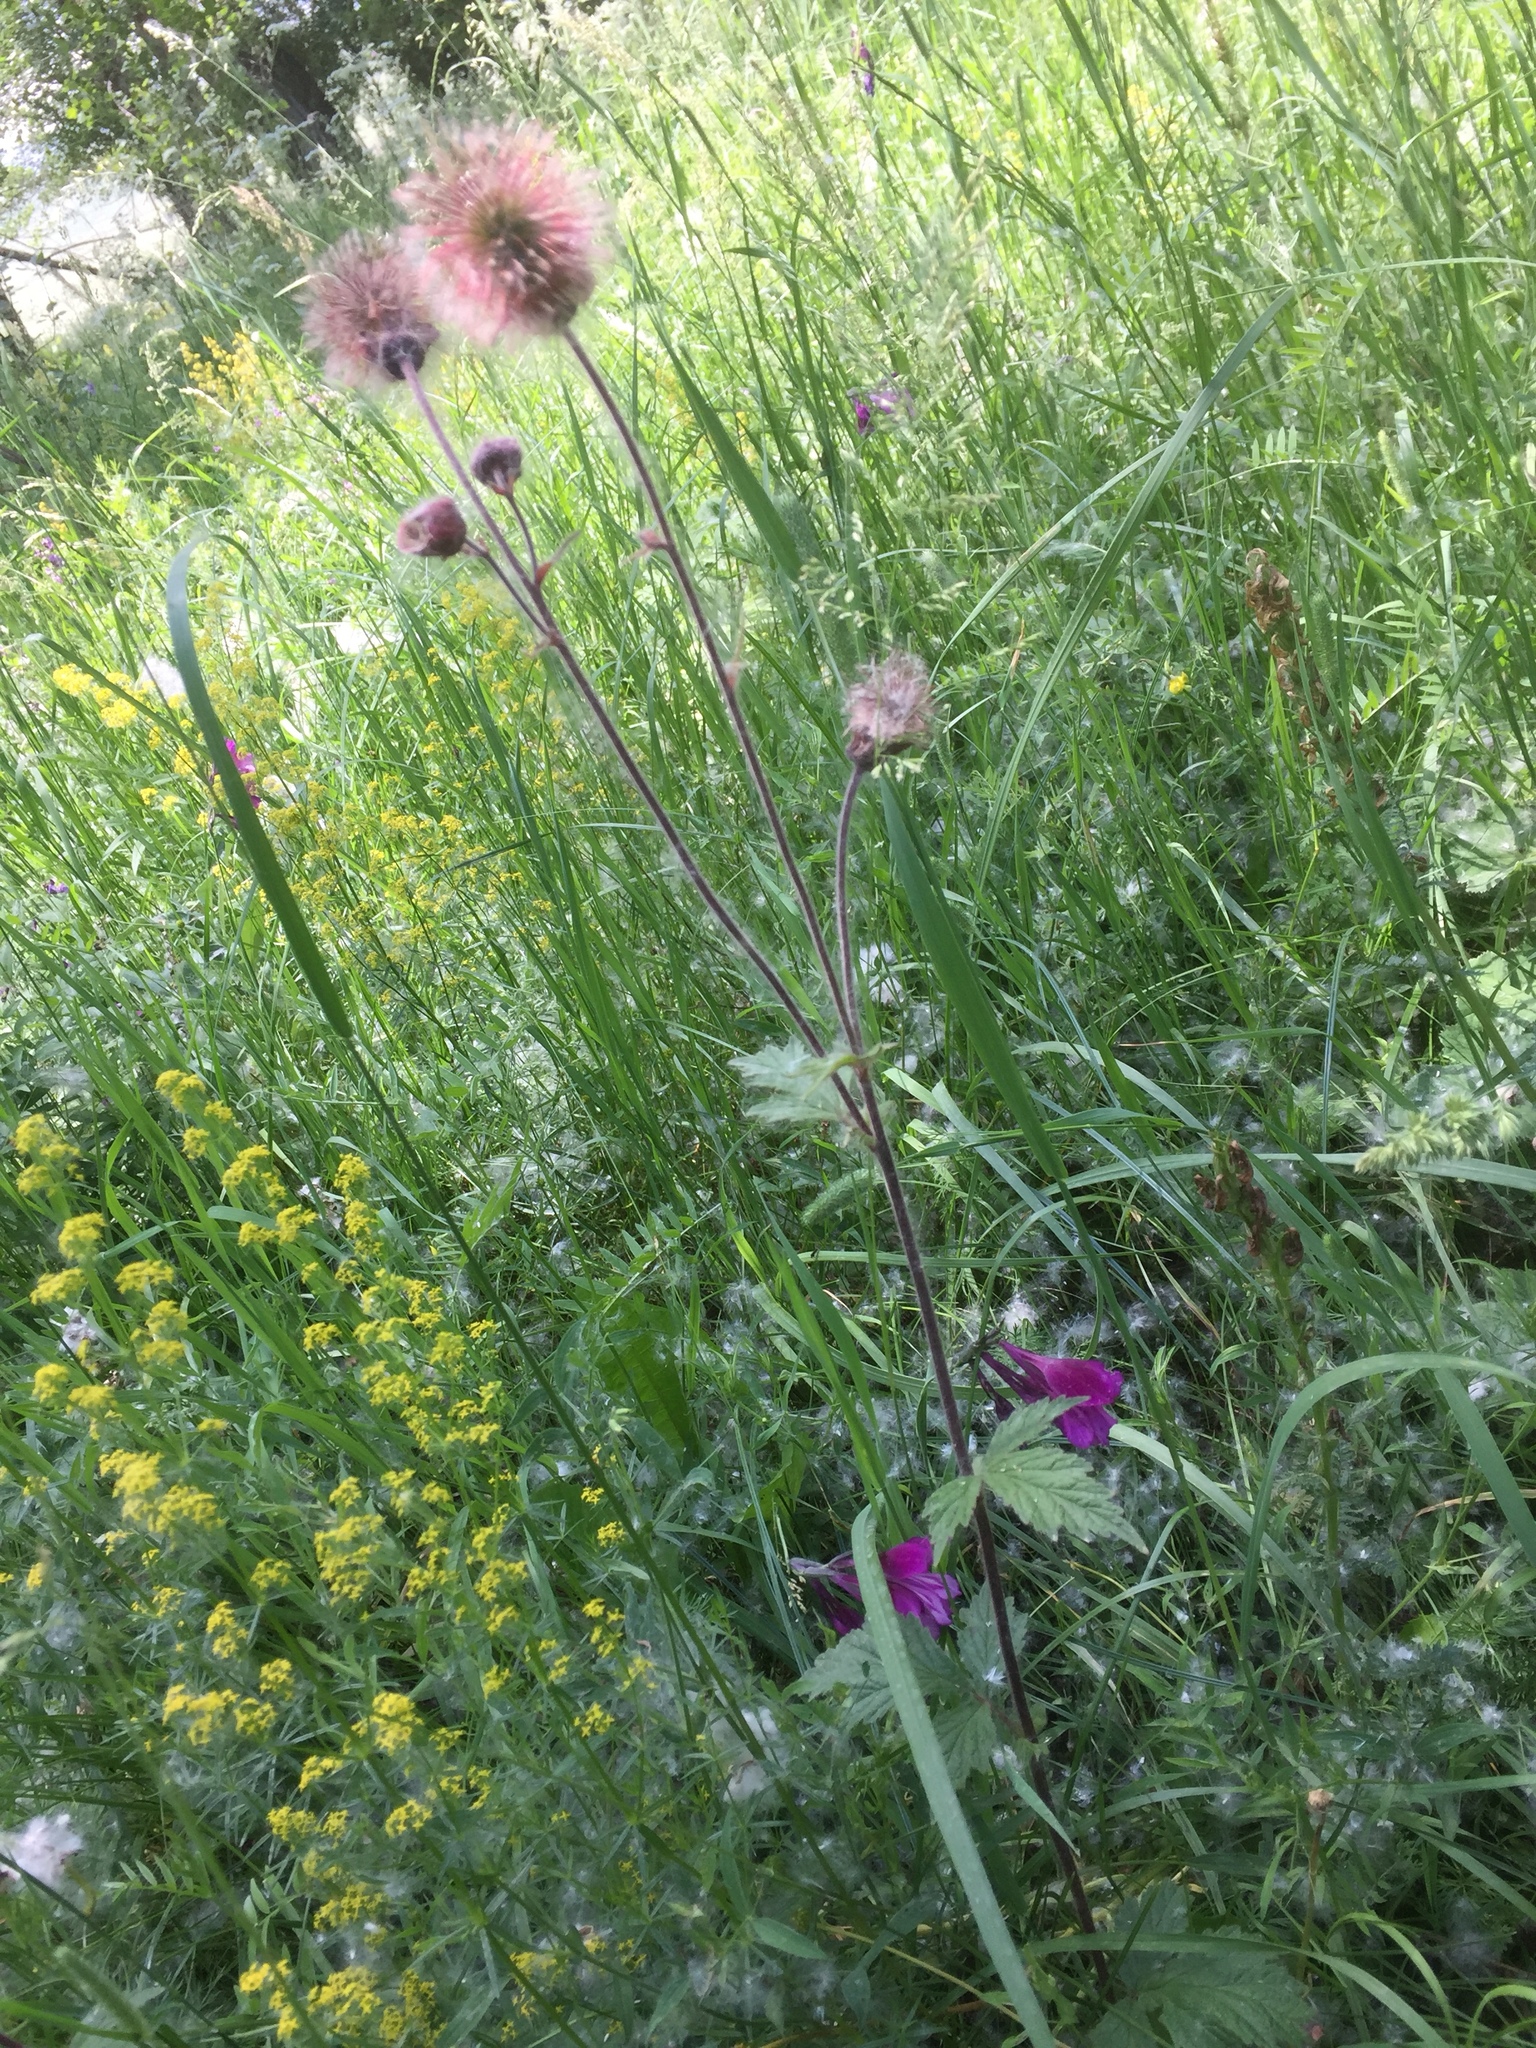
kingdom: Plantae
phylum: Tracheophyta
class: Magnoliopsida
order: Rosales
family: Rosaceae
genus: Geum
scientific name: Geum rivale
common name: Water avens
